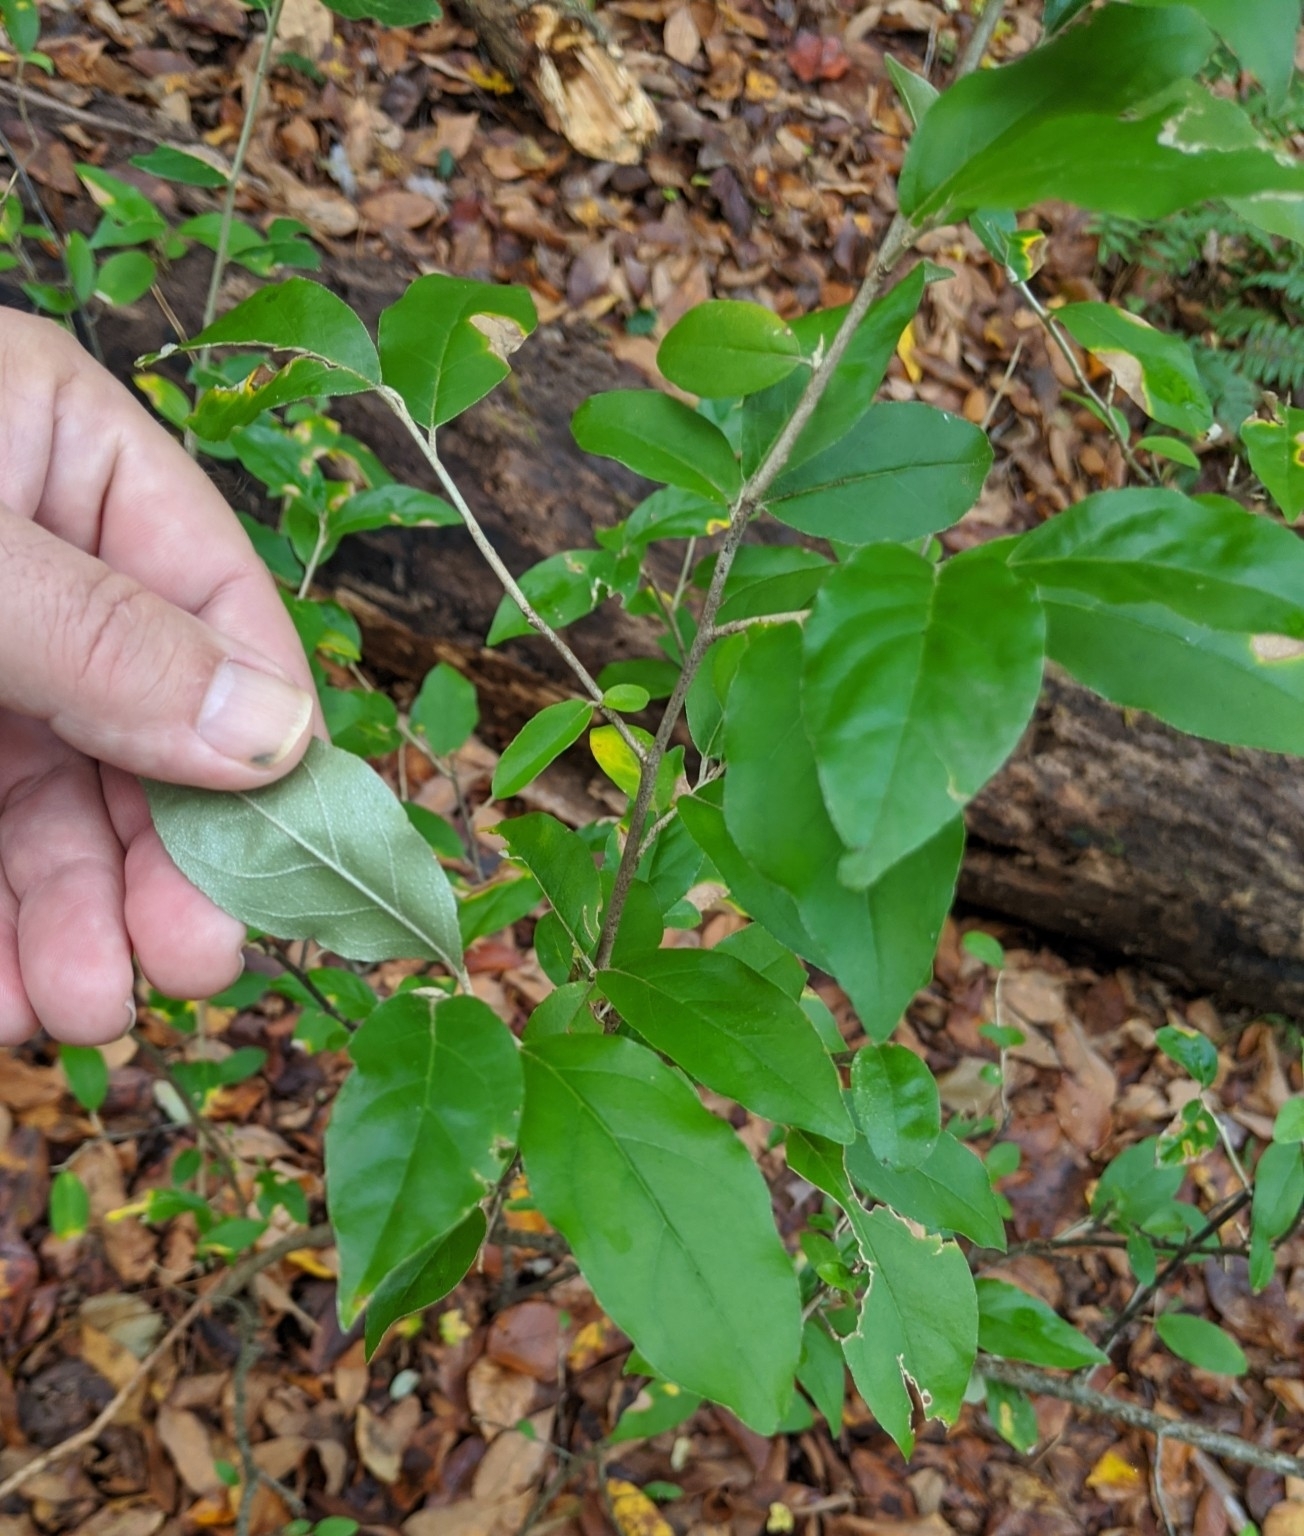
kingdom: Plantae
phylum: Tracheophyta
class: Magnoliopsida
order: Rosales
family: Elaeagnaceae
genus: Elaeagnus
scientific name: Elaeagnus umbellata
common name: Autumn olive
